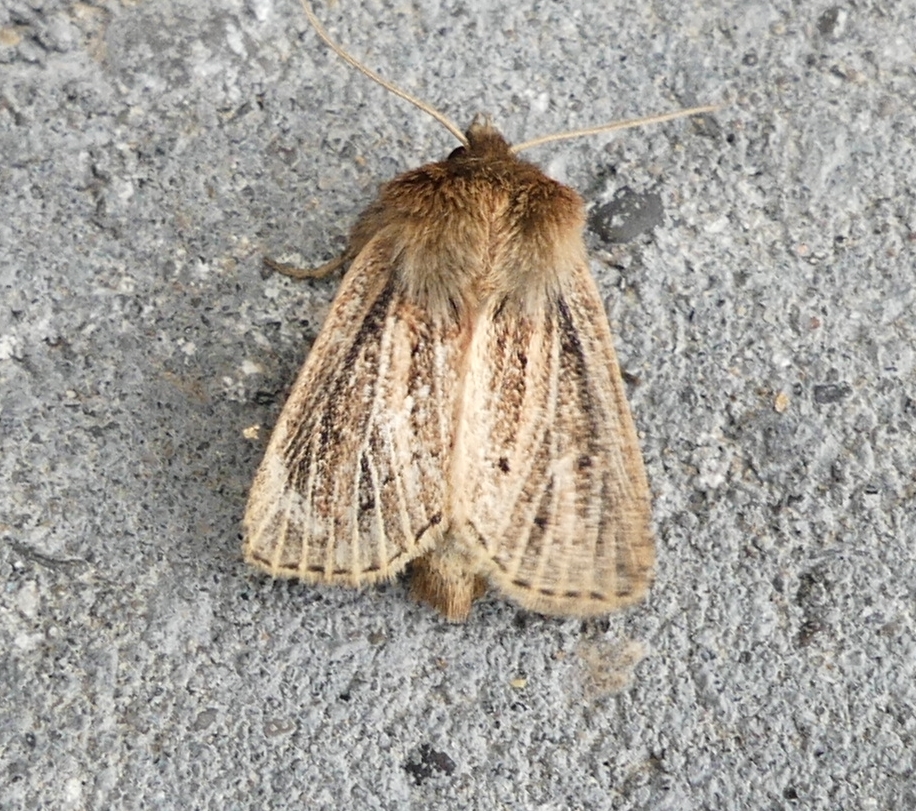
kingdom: Animalia
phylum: Arthropoda
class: Insecta
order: Lepidoptera
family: Noctuidae
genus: Hypocoena
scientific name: Hypocoena inquinata
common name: Tufted sedge moth
